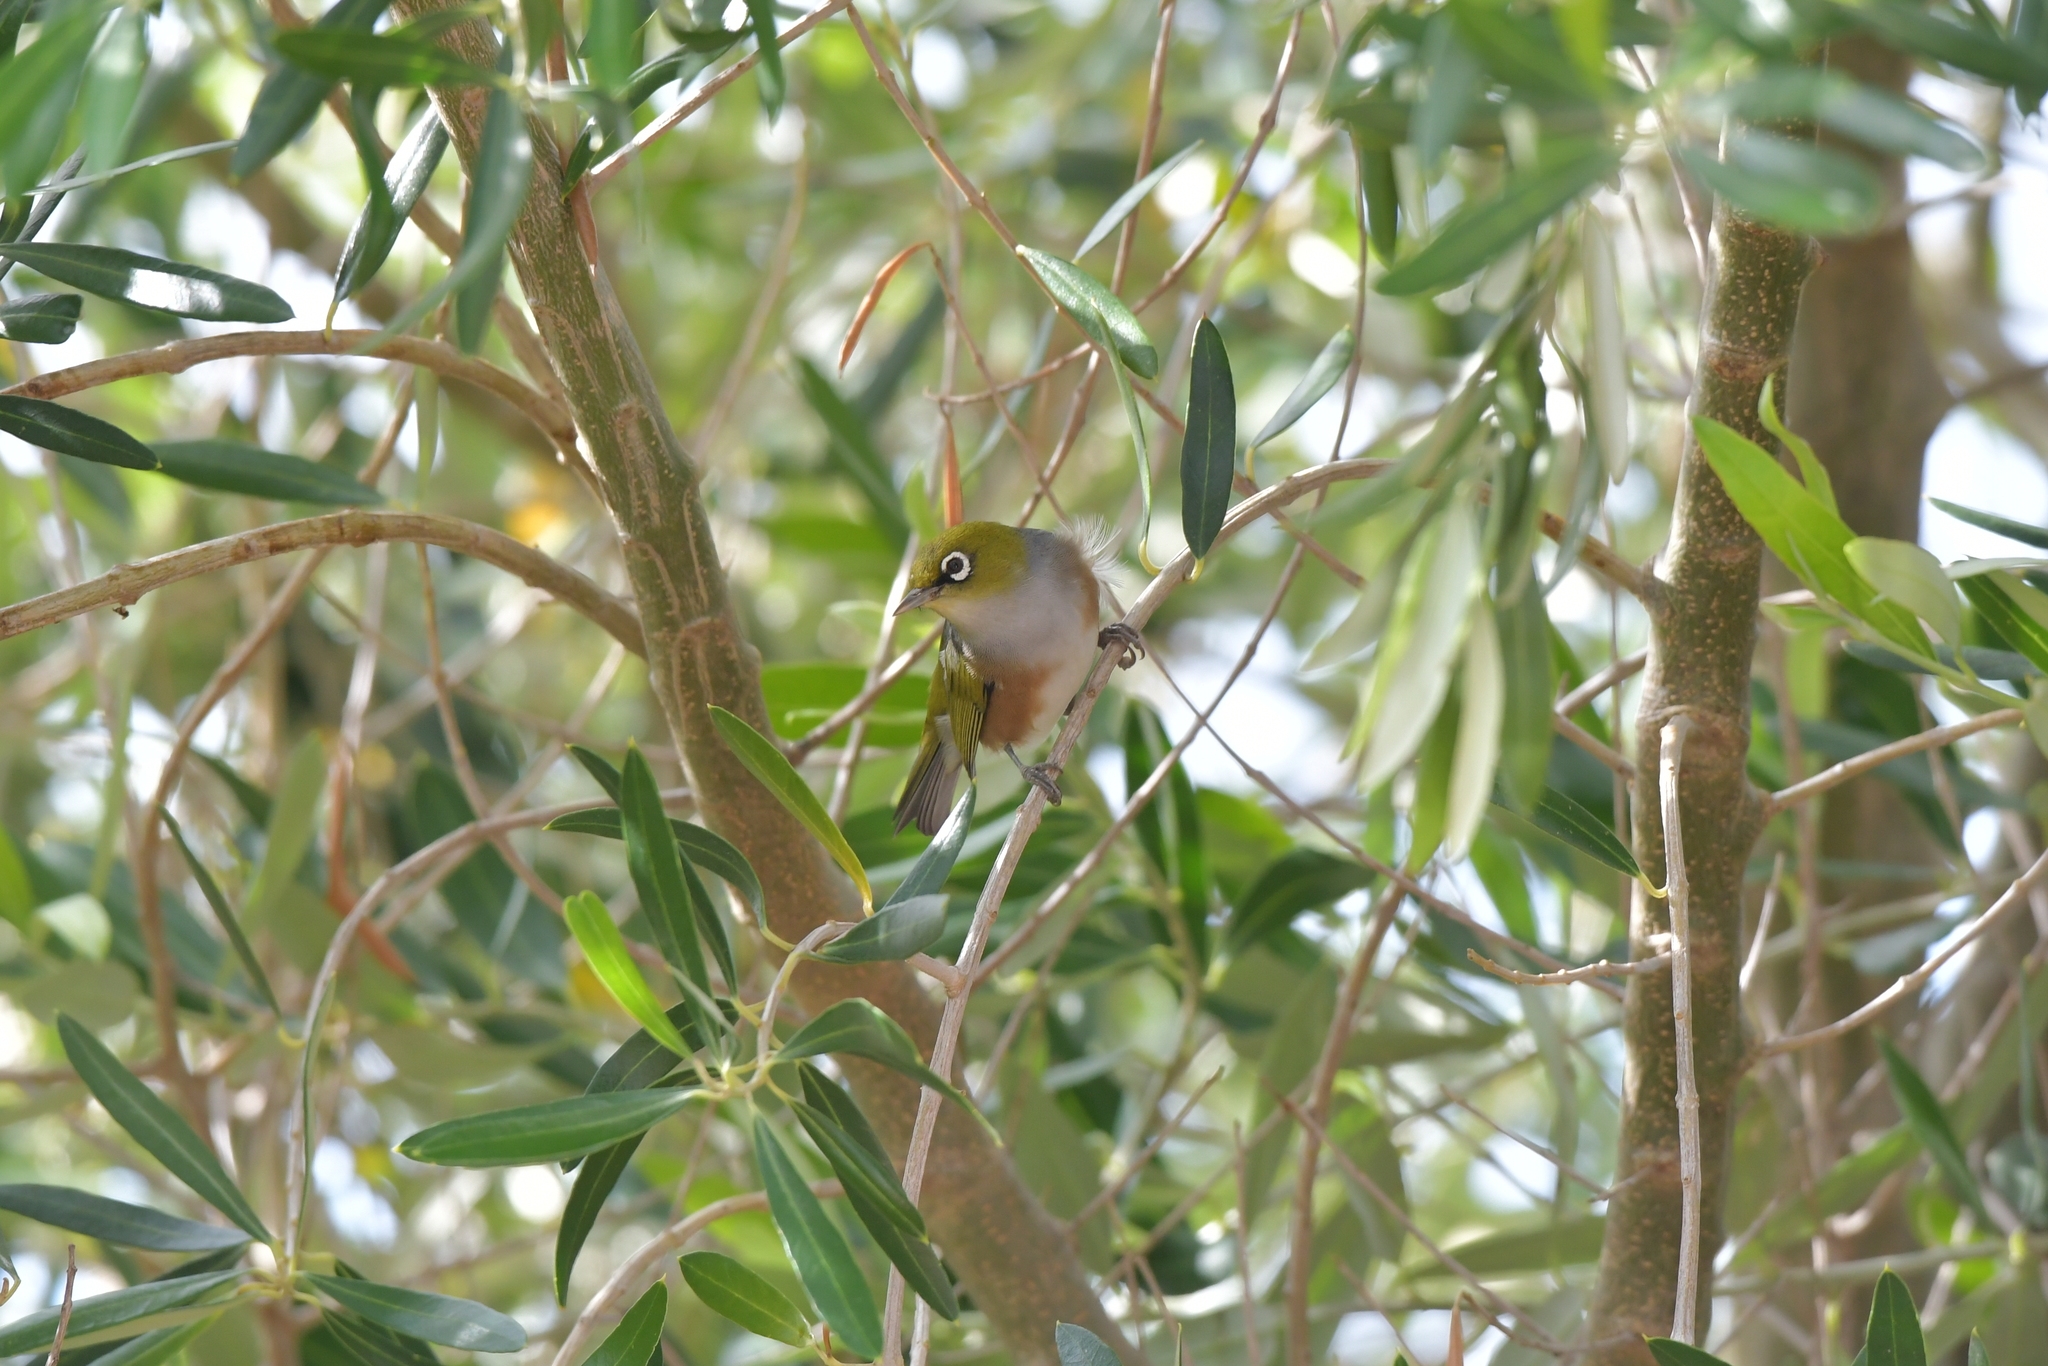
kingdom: Animalia
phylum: Chordata
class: Aves
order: Passeriformes
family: Zosteropidae
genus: Zosterops
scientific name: Zosterops lateralis
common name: Silvereye
